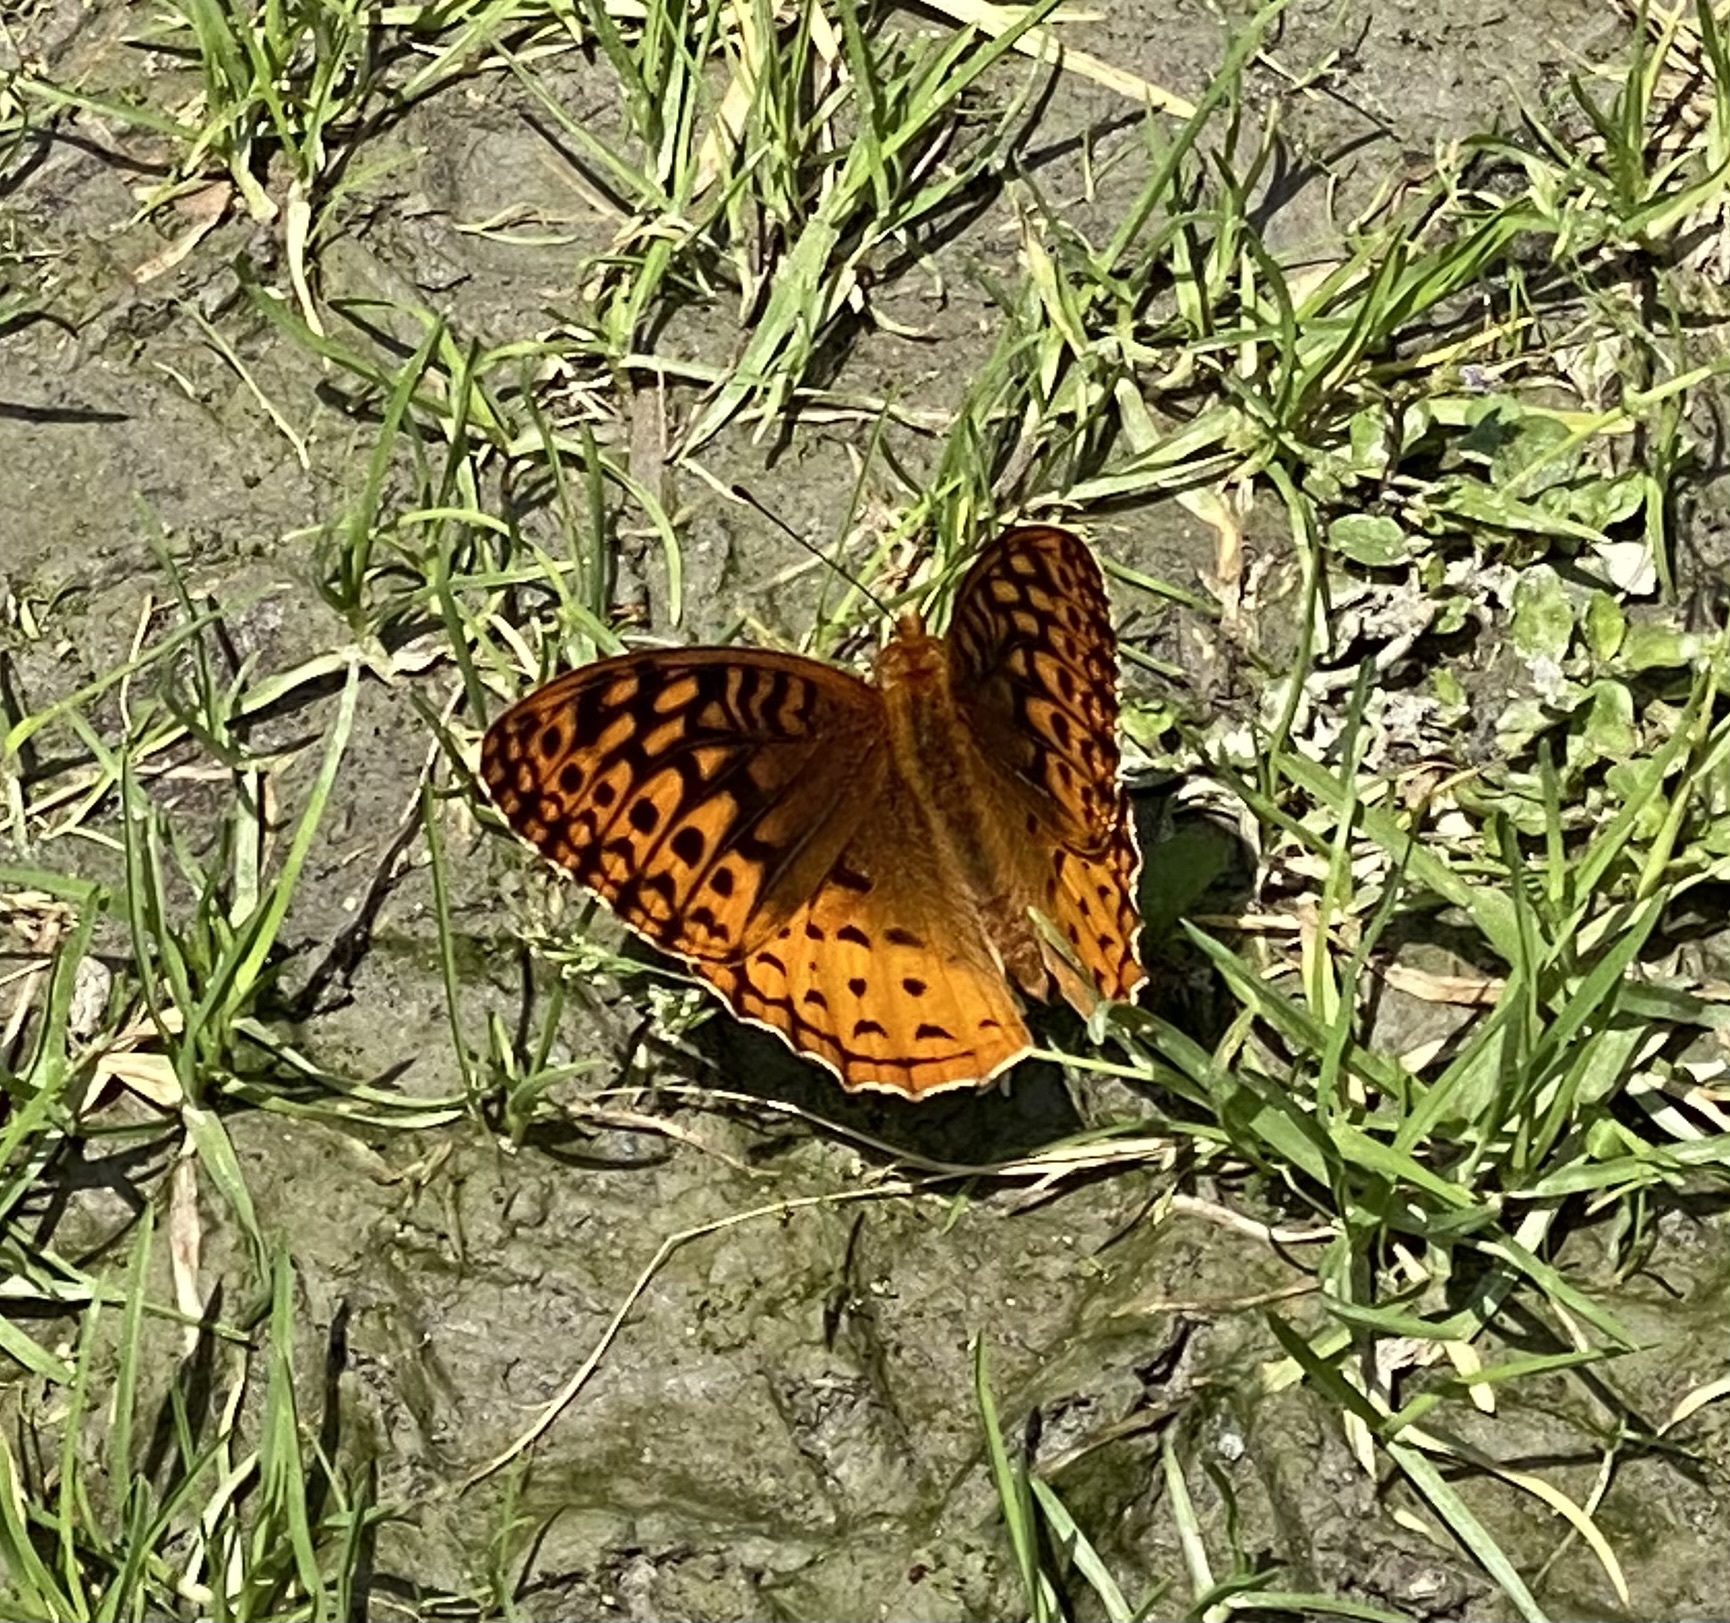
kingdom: Animalia
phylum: Arthropoda
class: Insecta
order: Lepidoptera
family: Nymphalidae
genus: Speyeria
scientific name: Speyeria cybele
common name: Great spangled fritillary
